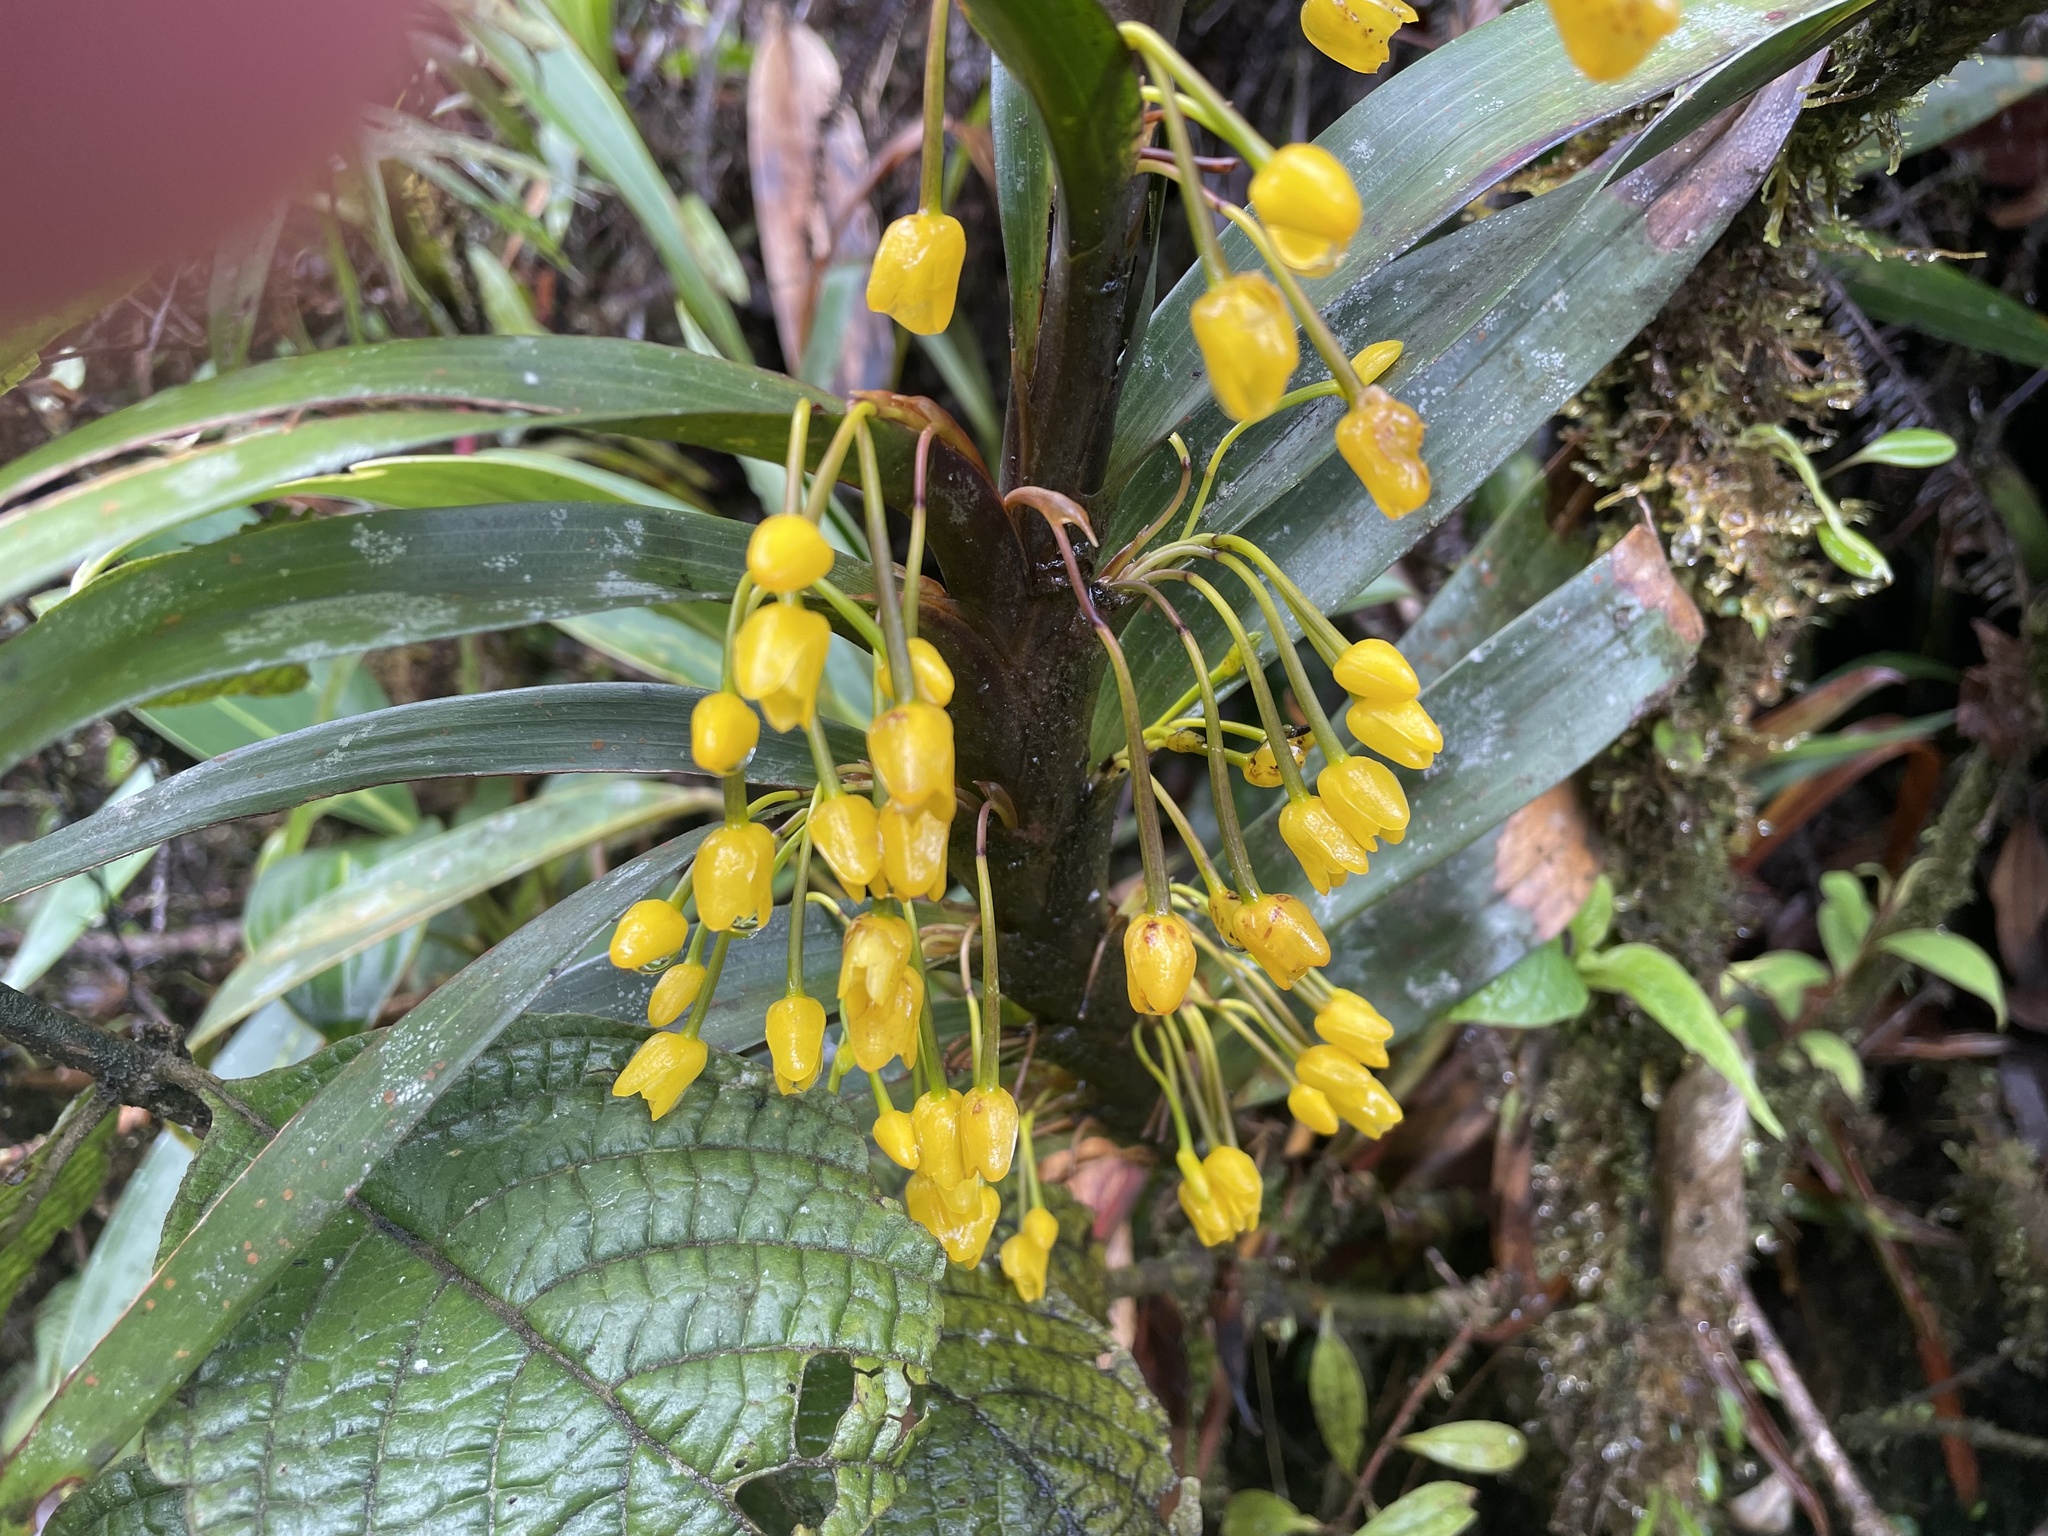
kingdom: Plantae
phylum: Tracheophyta
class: Liliopsida
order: Asparagales
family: Orchidaceae
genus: Maxillaria
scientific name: Maxillaria aurea
